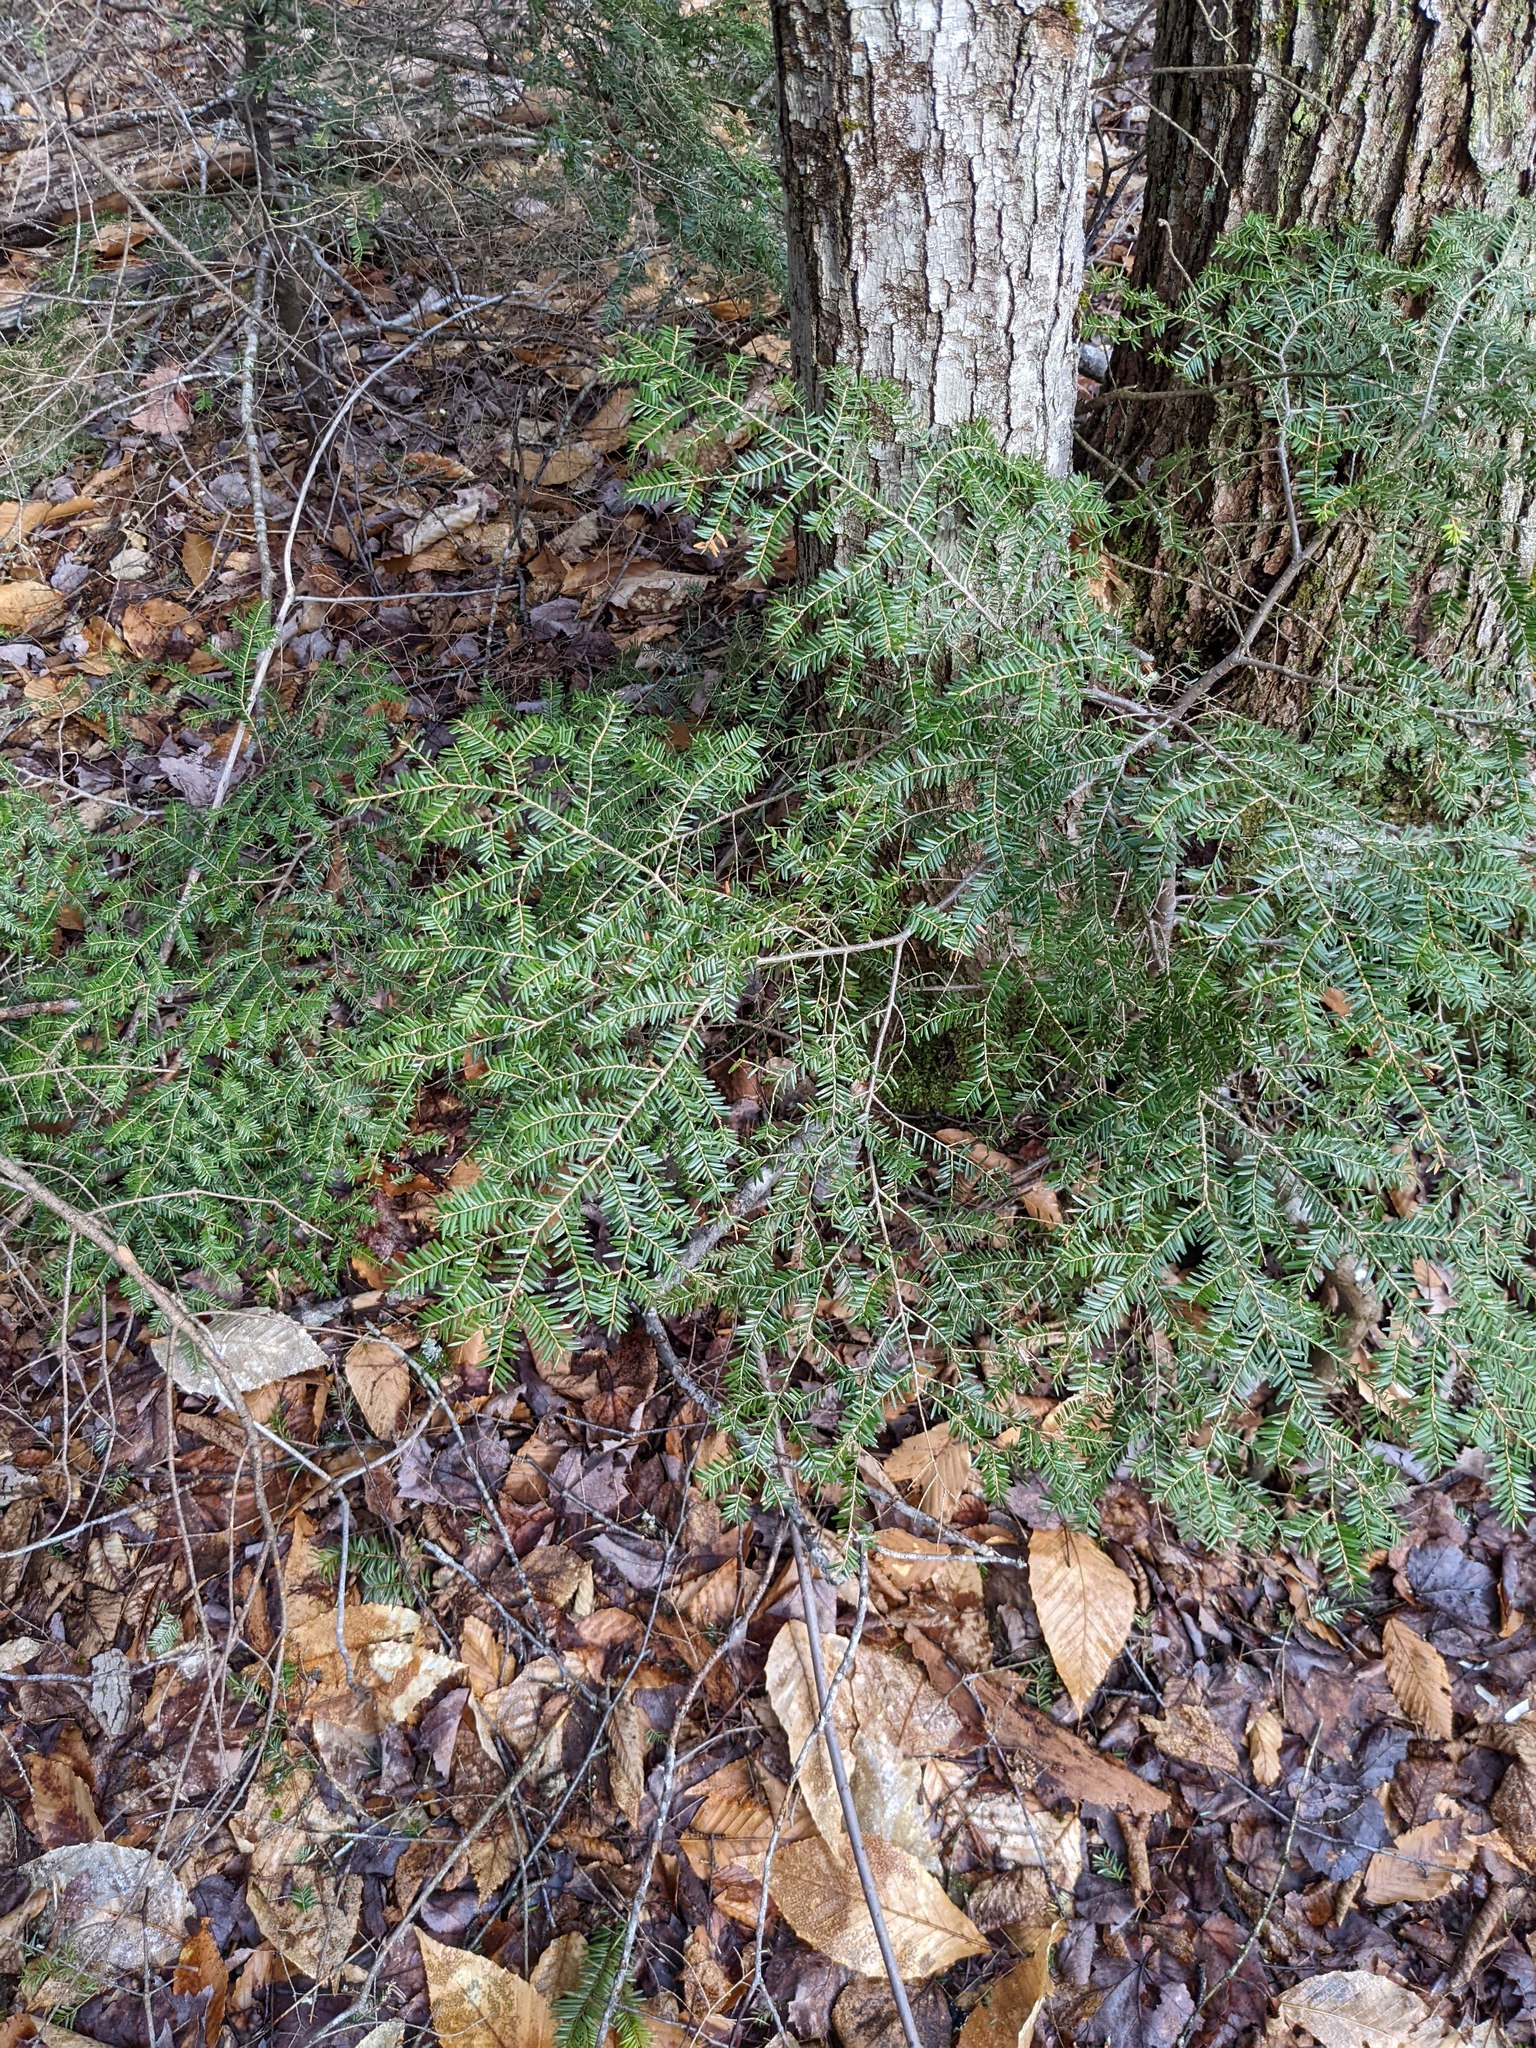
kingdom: Plantae
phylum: Tracheophyta
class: Pinopsida
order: Pinales
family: Pinaceae
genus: Tsuga
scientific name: Tsuga canadensis
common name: Eastern hemlock
